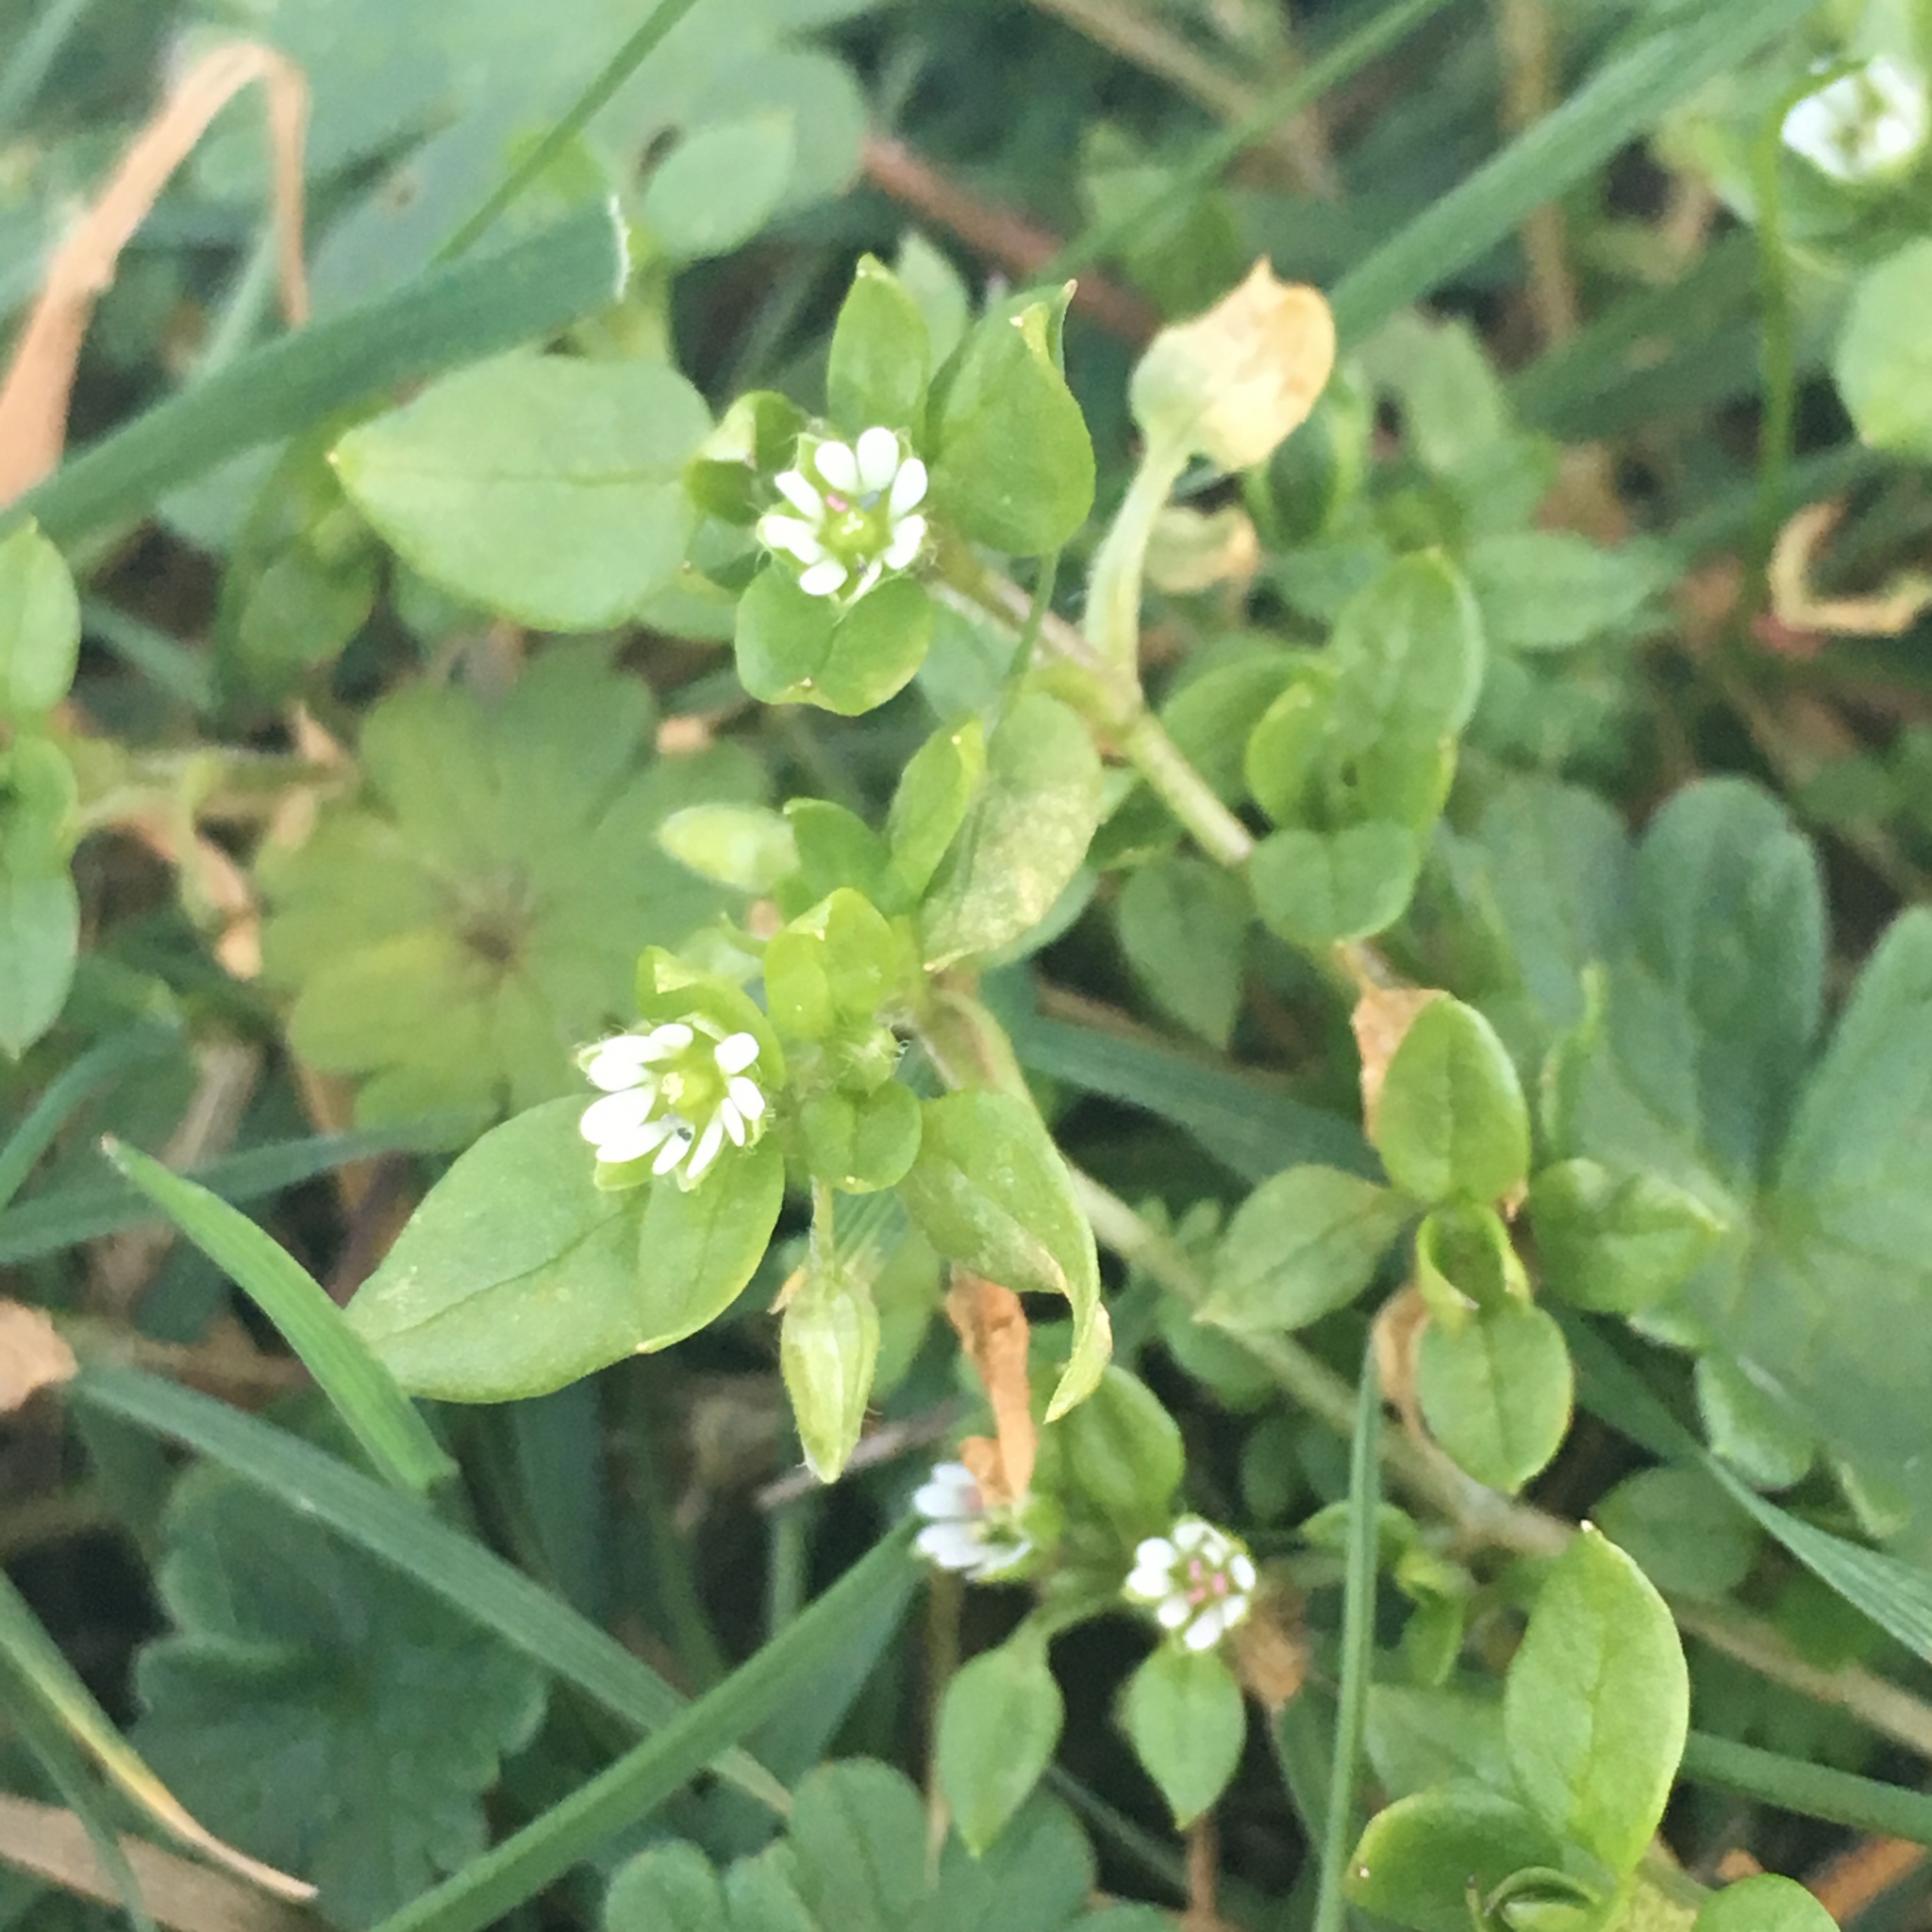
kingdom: Plantae
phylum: Tracheophyta
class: Magnoliopsida
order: Caryophyllales
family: Caryophyllaceae
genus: Stellaria
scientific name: Stellaria media
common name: Common chickweed
